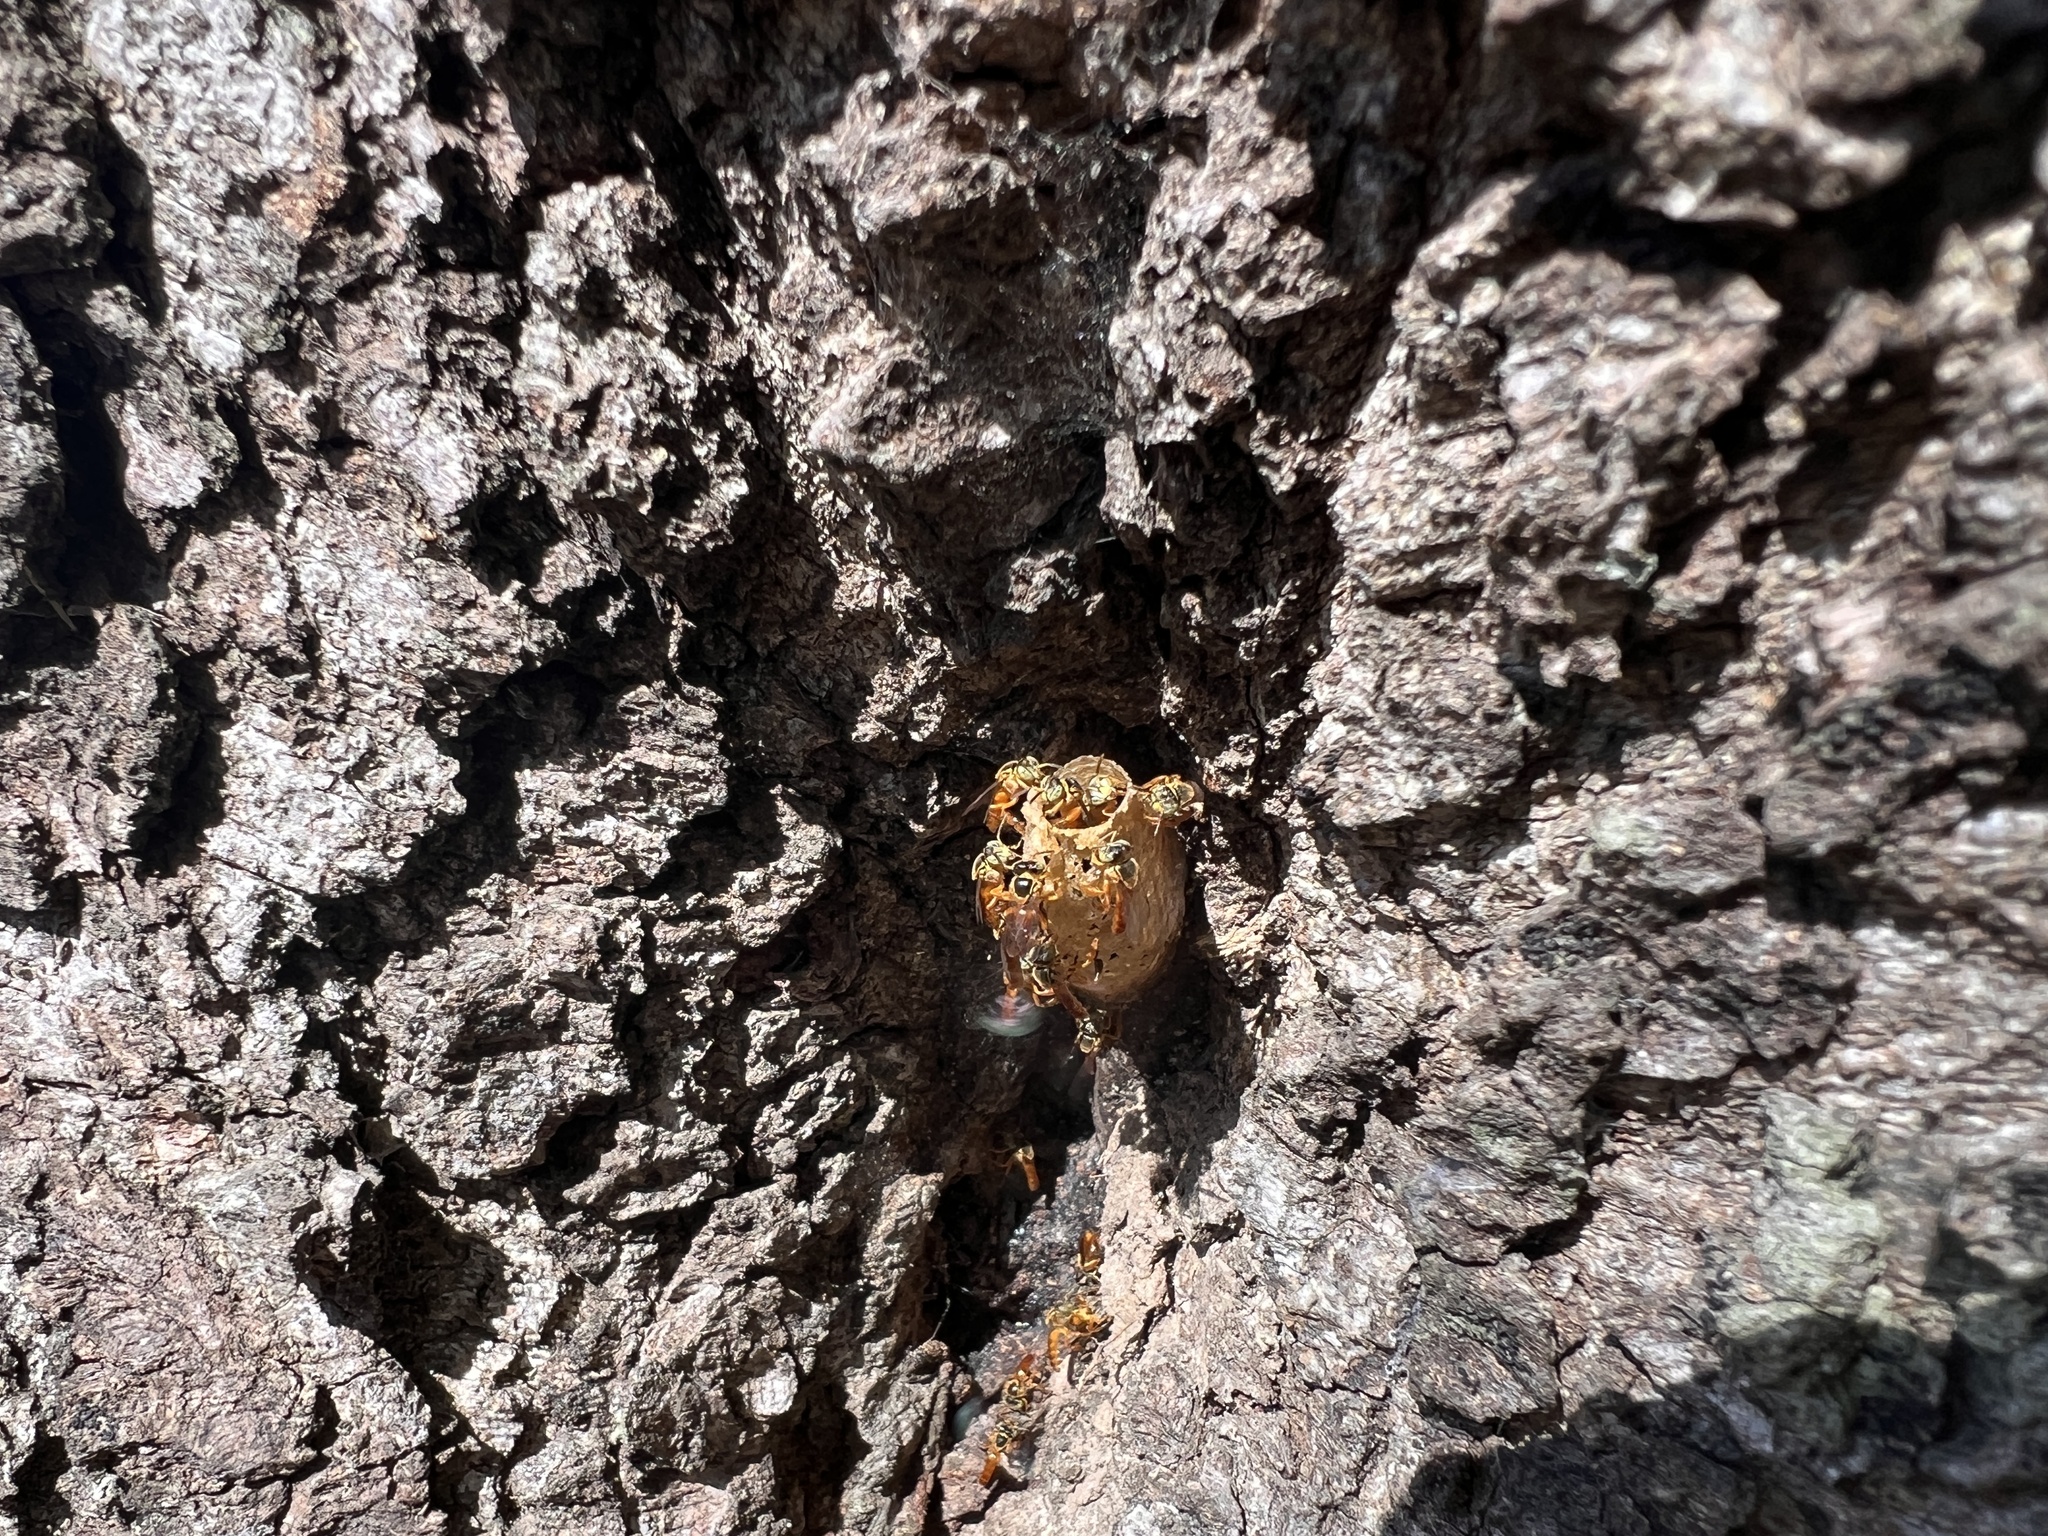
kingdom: Animalia
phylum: Arthropoda
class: Insecta
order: Hymenoptera
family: Apidae
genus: Tetragonisca
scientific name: Tetragonisca fiebrigi
